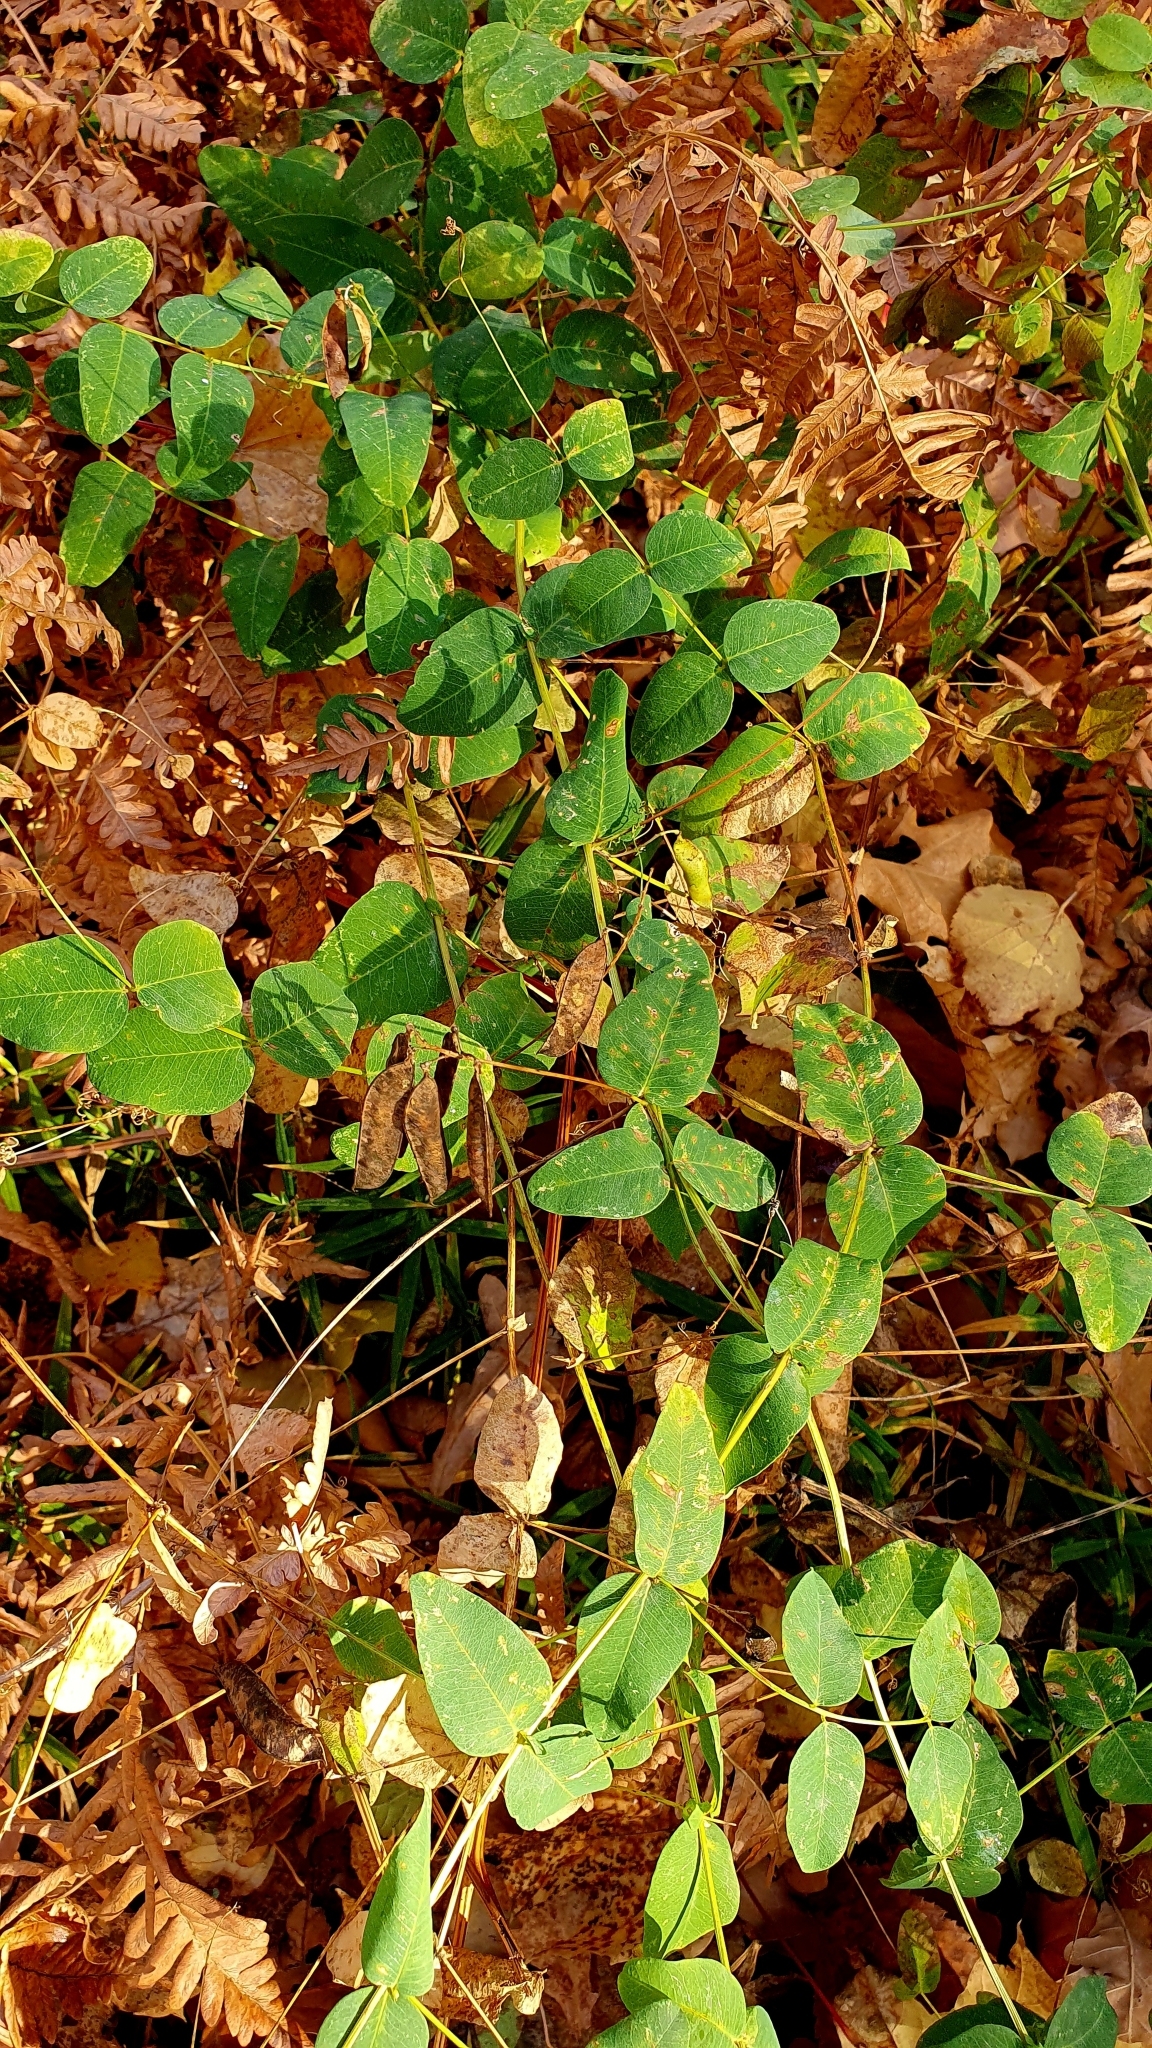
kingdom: Plantae
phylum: Tracheophyta
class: Magnoliopsida
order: Fabales
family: Fabaceae
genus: Vicia
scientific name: Vicia pisiformis
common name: Pale-flower vetch
